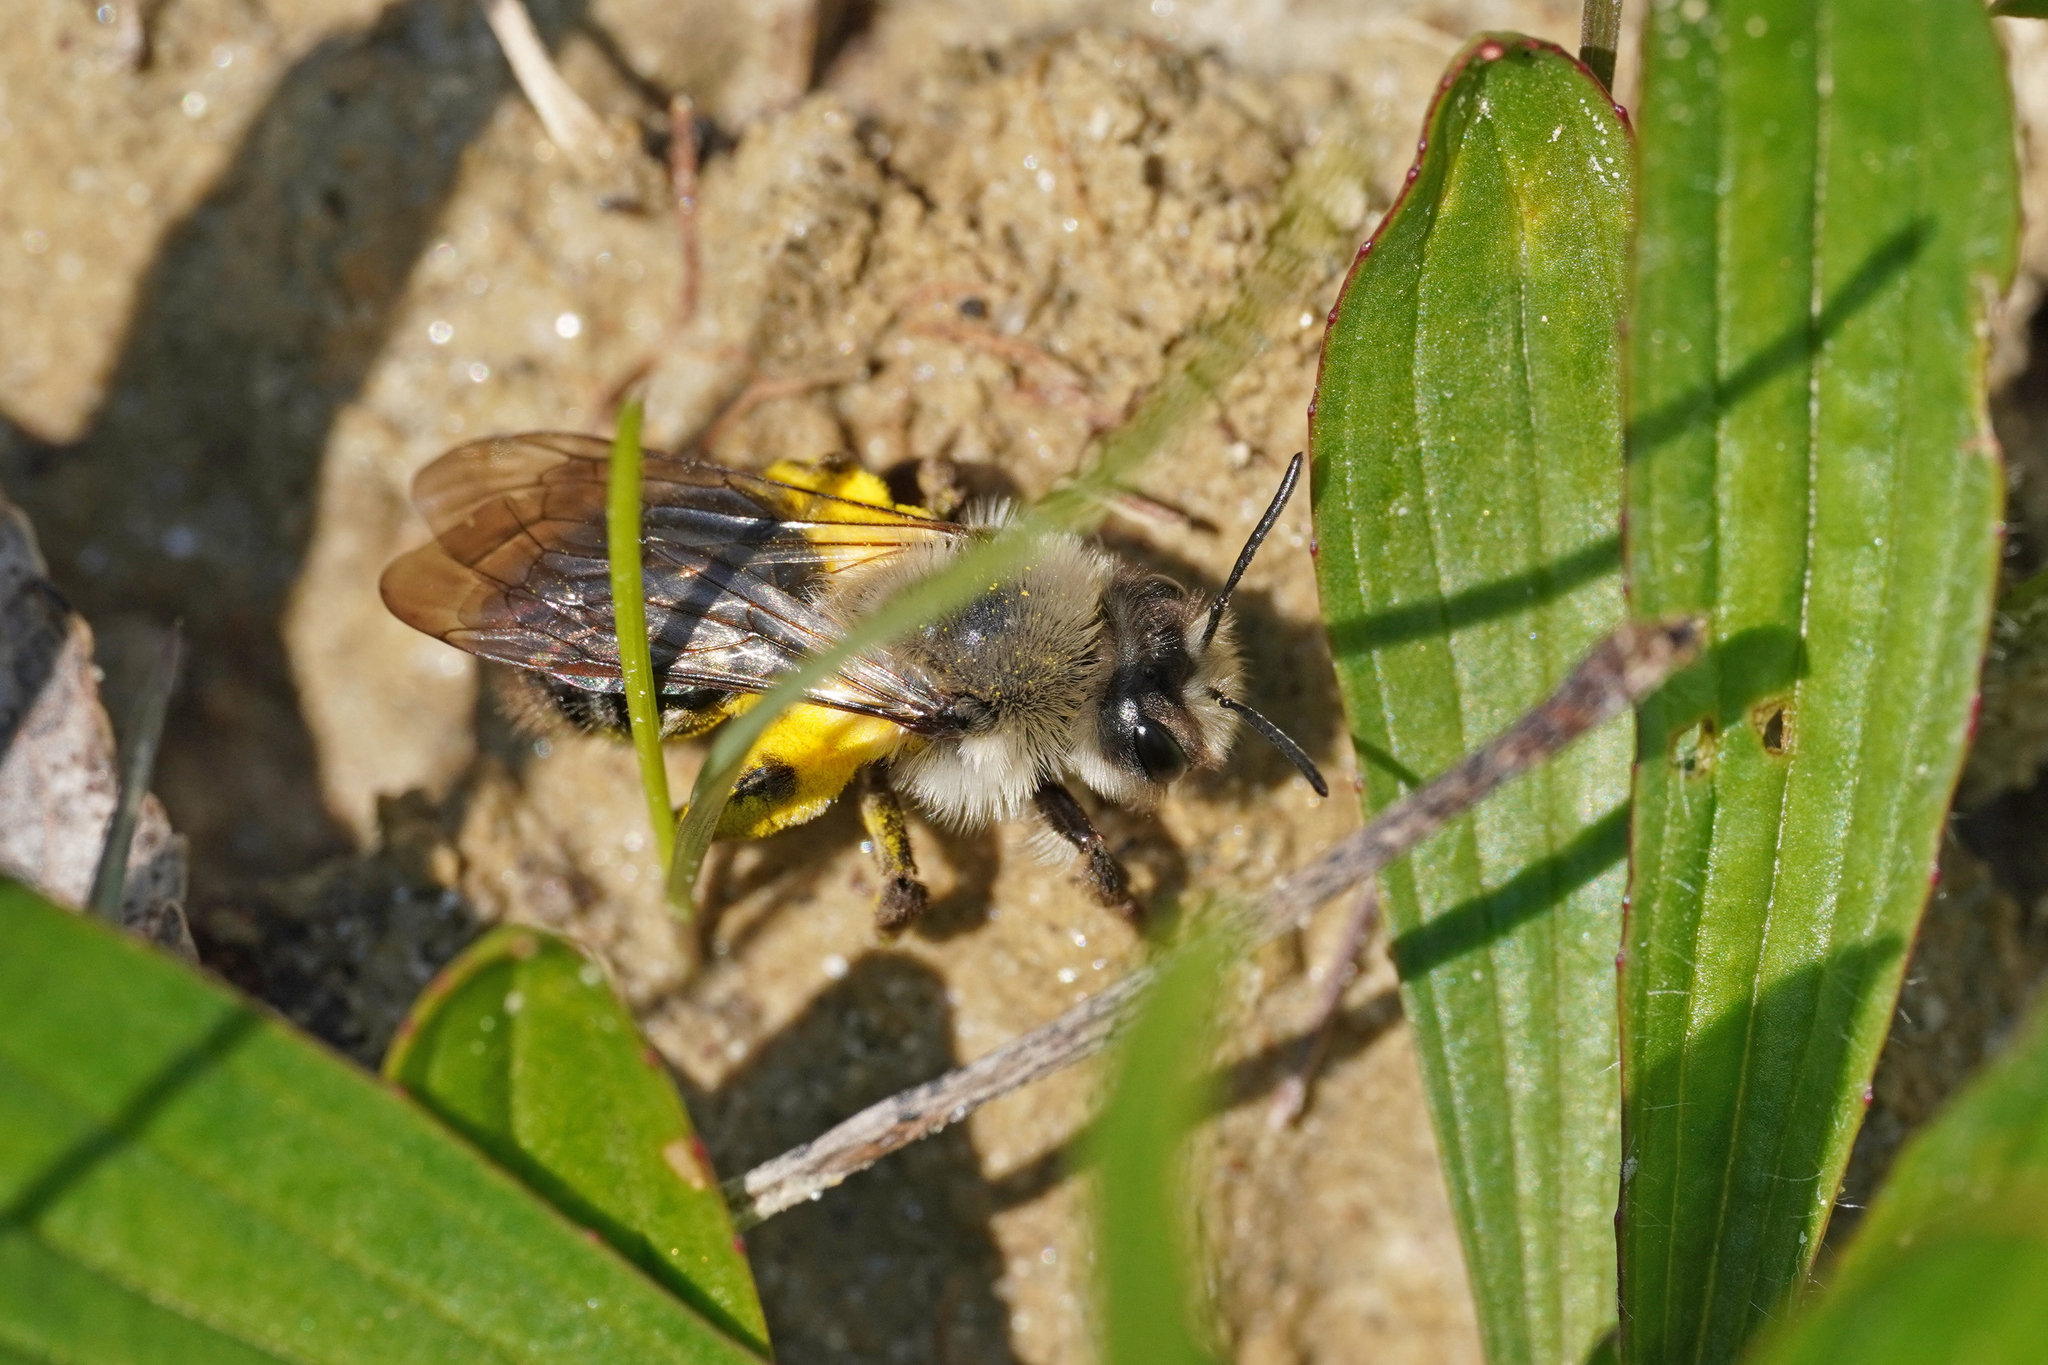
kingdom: Animalia
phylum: Arthropoda
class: Insecta
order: Hymenoptera
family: Andrenidae
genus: Andrena
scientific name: Andrena vaga
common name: Grey-backed mining bee
